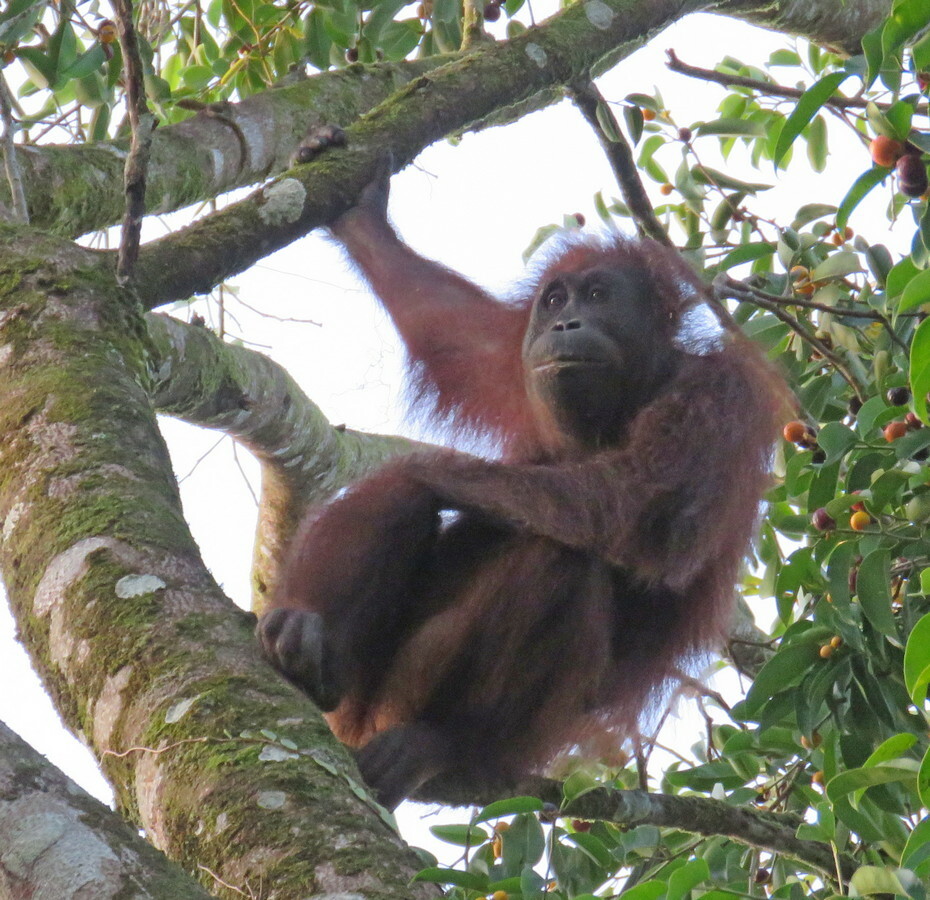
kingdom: Animalia
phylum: Chordata
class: Mammalia
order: Primates
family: Hominidae
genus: Pongo
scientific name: Pongo pygmaeus
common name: Bornean orangutan
